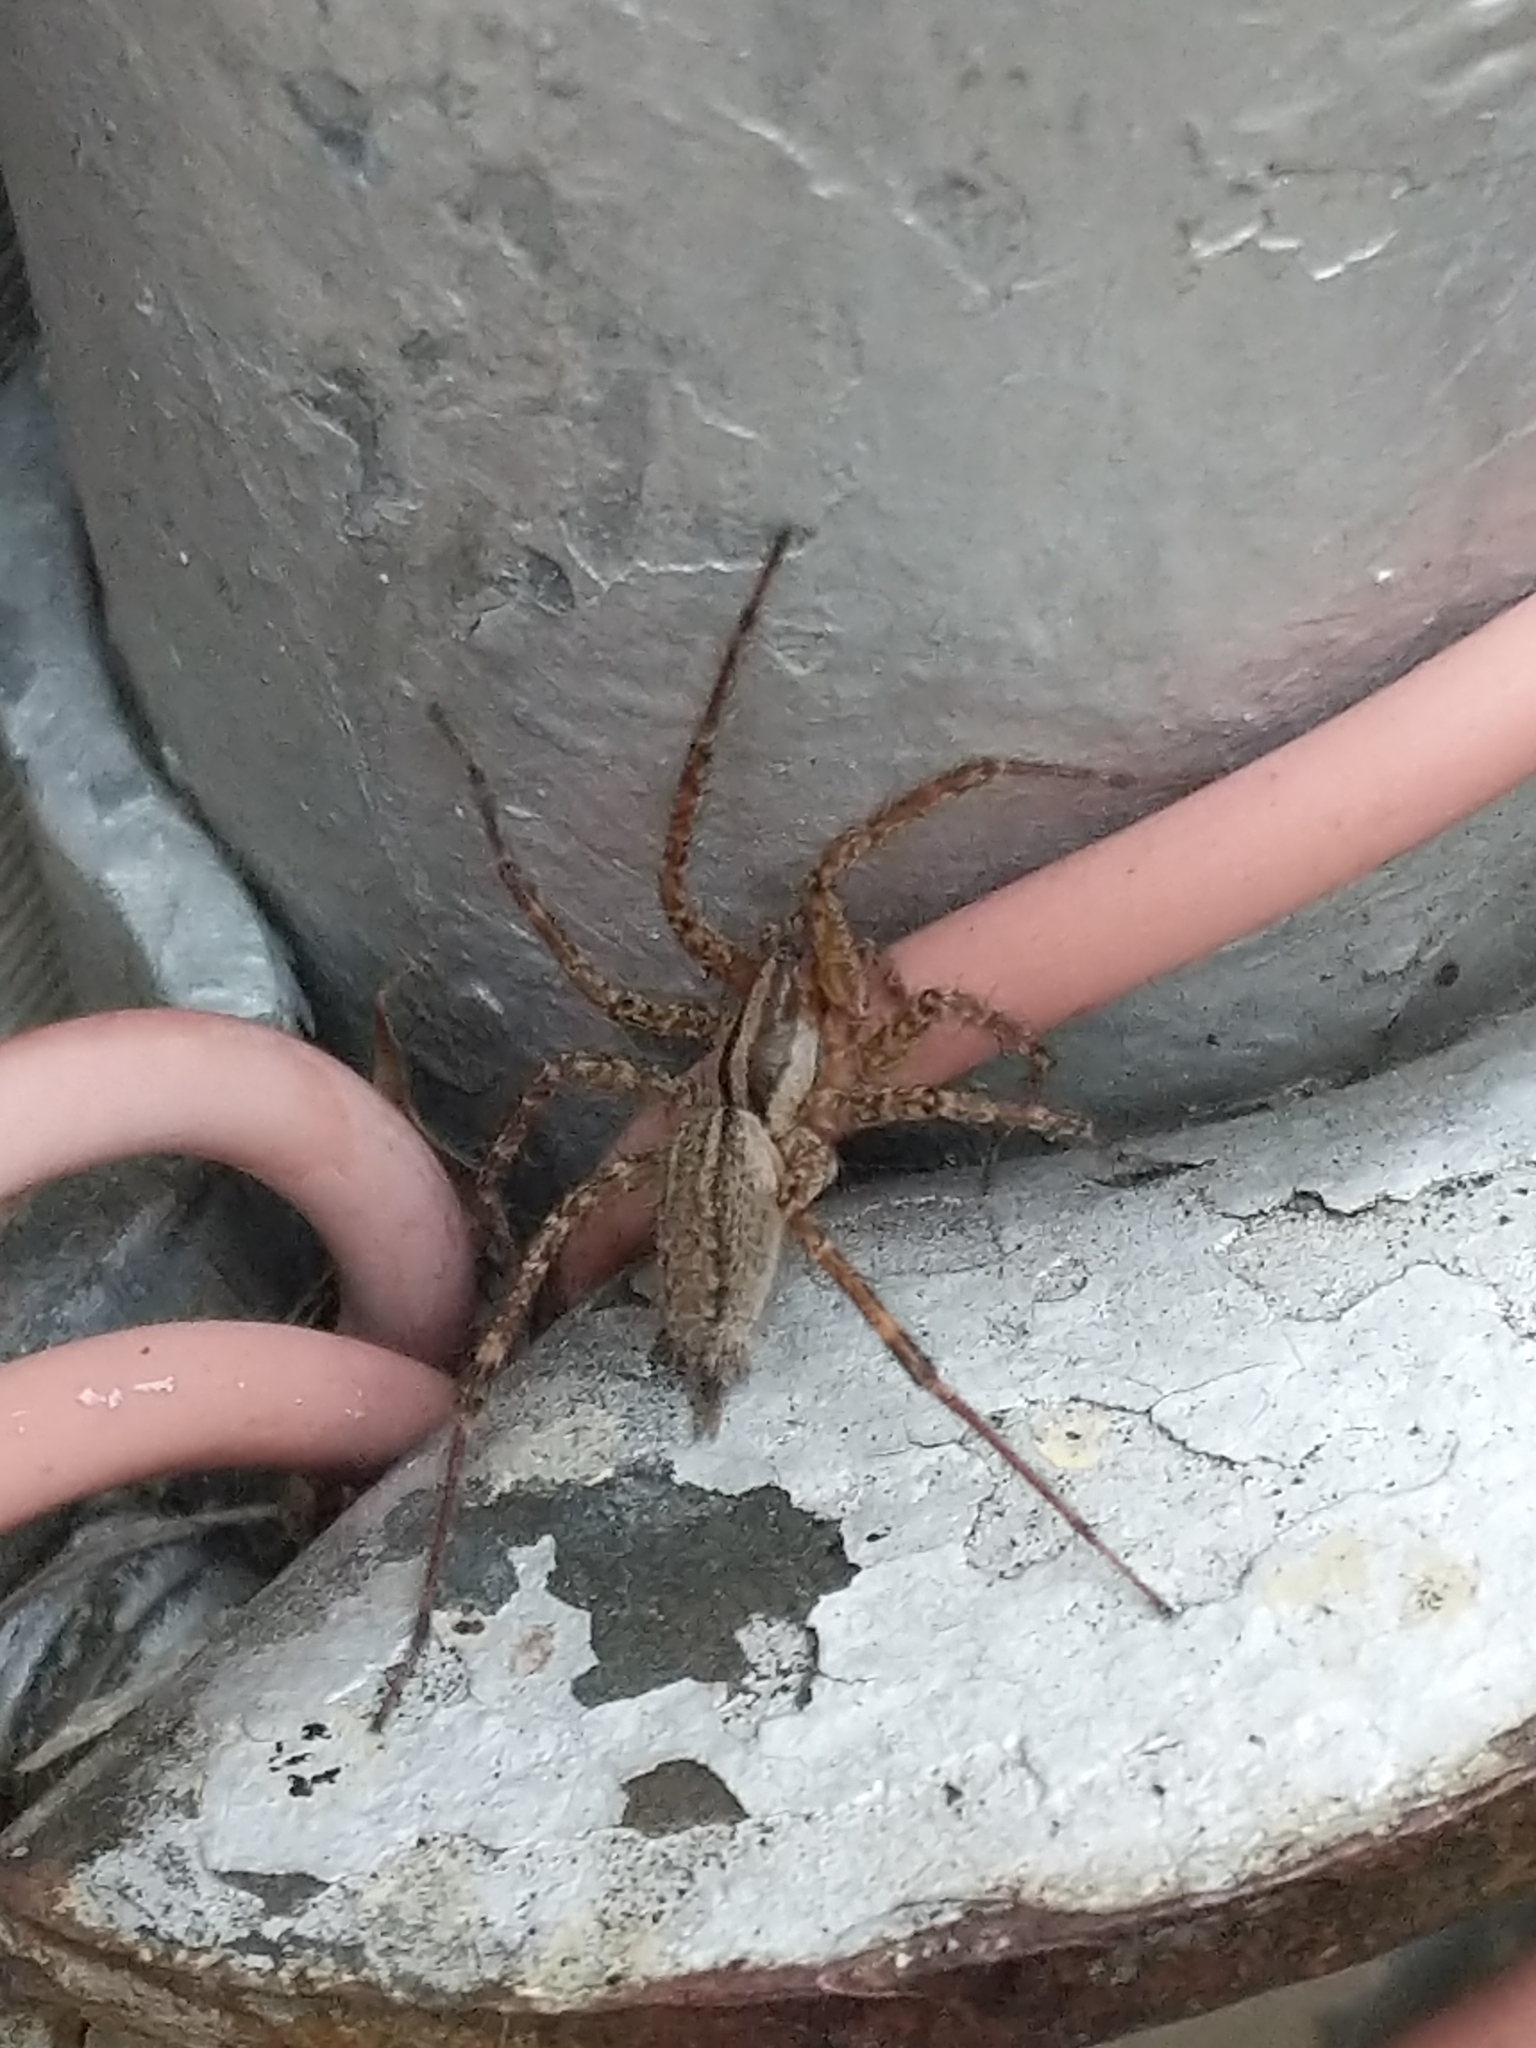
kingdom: Animalia
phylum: Arthropoda
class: Arachnida
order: Araneae
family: Agelenidae
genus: Agelenopsis
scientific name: Agelenopsis
